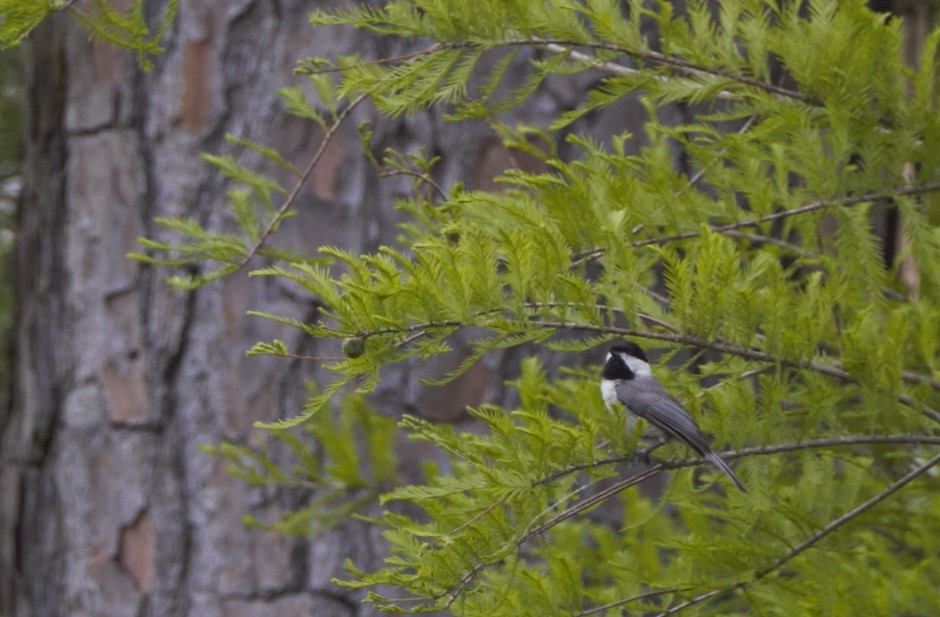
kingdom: Animalia
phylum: Chordata
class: Aves
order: Passeriformes
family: Paridae
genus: Poecile
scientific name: Poecile carolinensis
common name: Carolina chickadee
